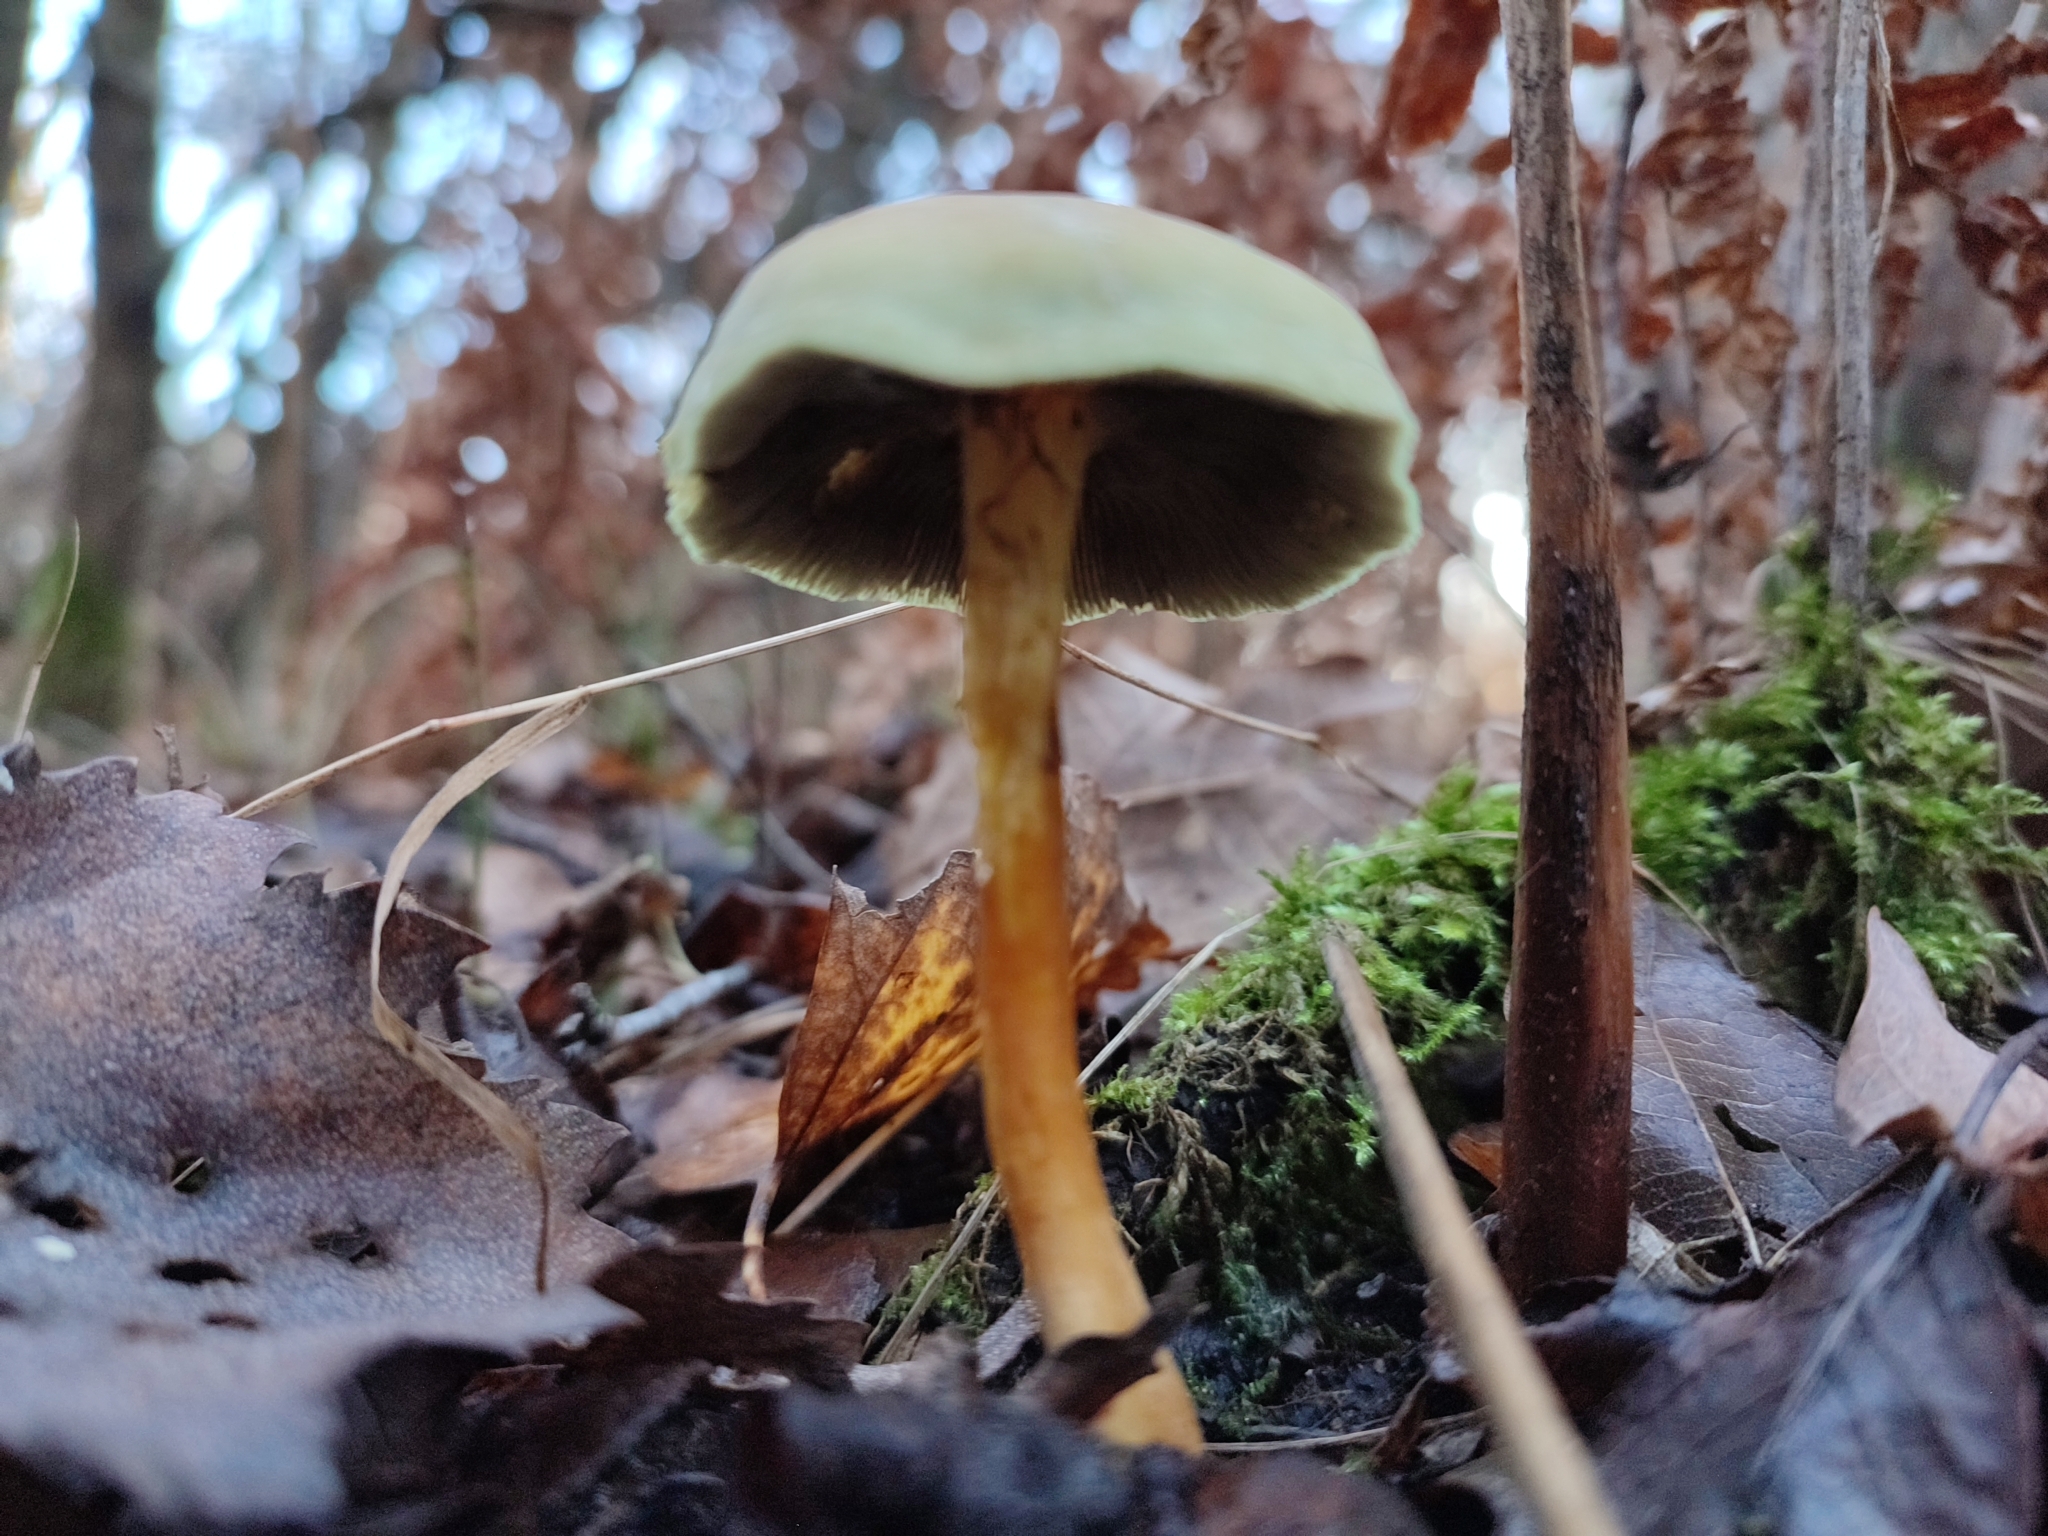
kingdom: Fungi
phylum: Basidiomycota
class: Agaricomycetes
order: Agaricales
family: Strophariaceae
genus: Hypholoma
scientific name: Hypholoma fasciculare
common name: Sulphur tuft
